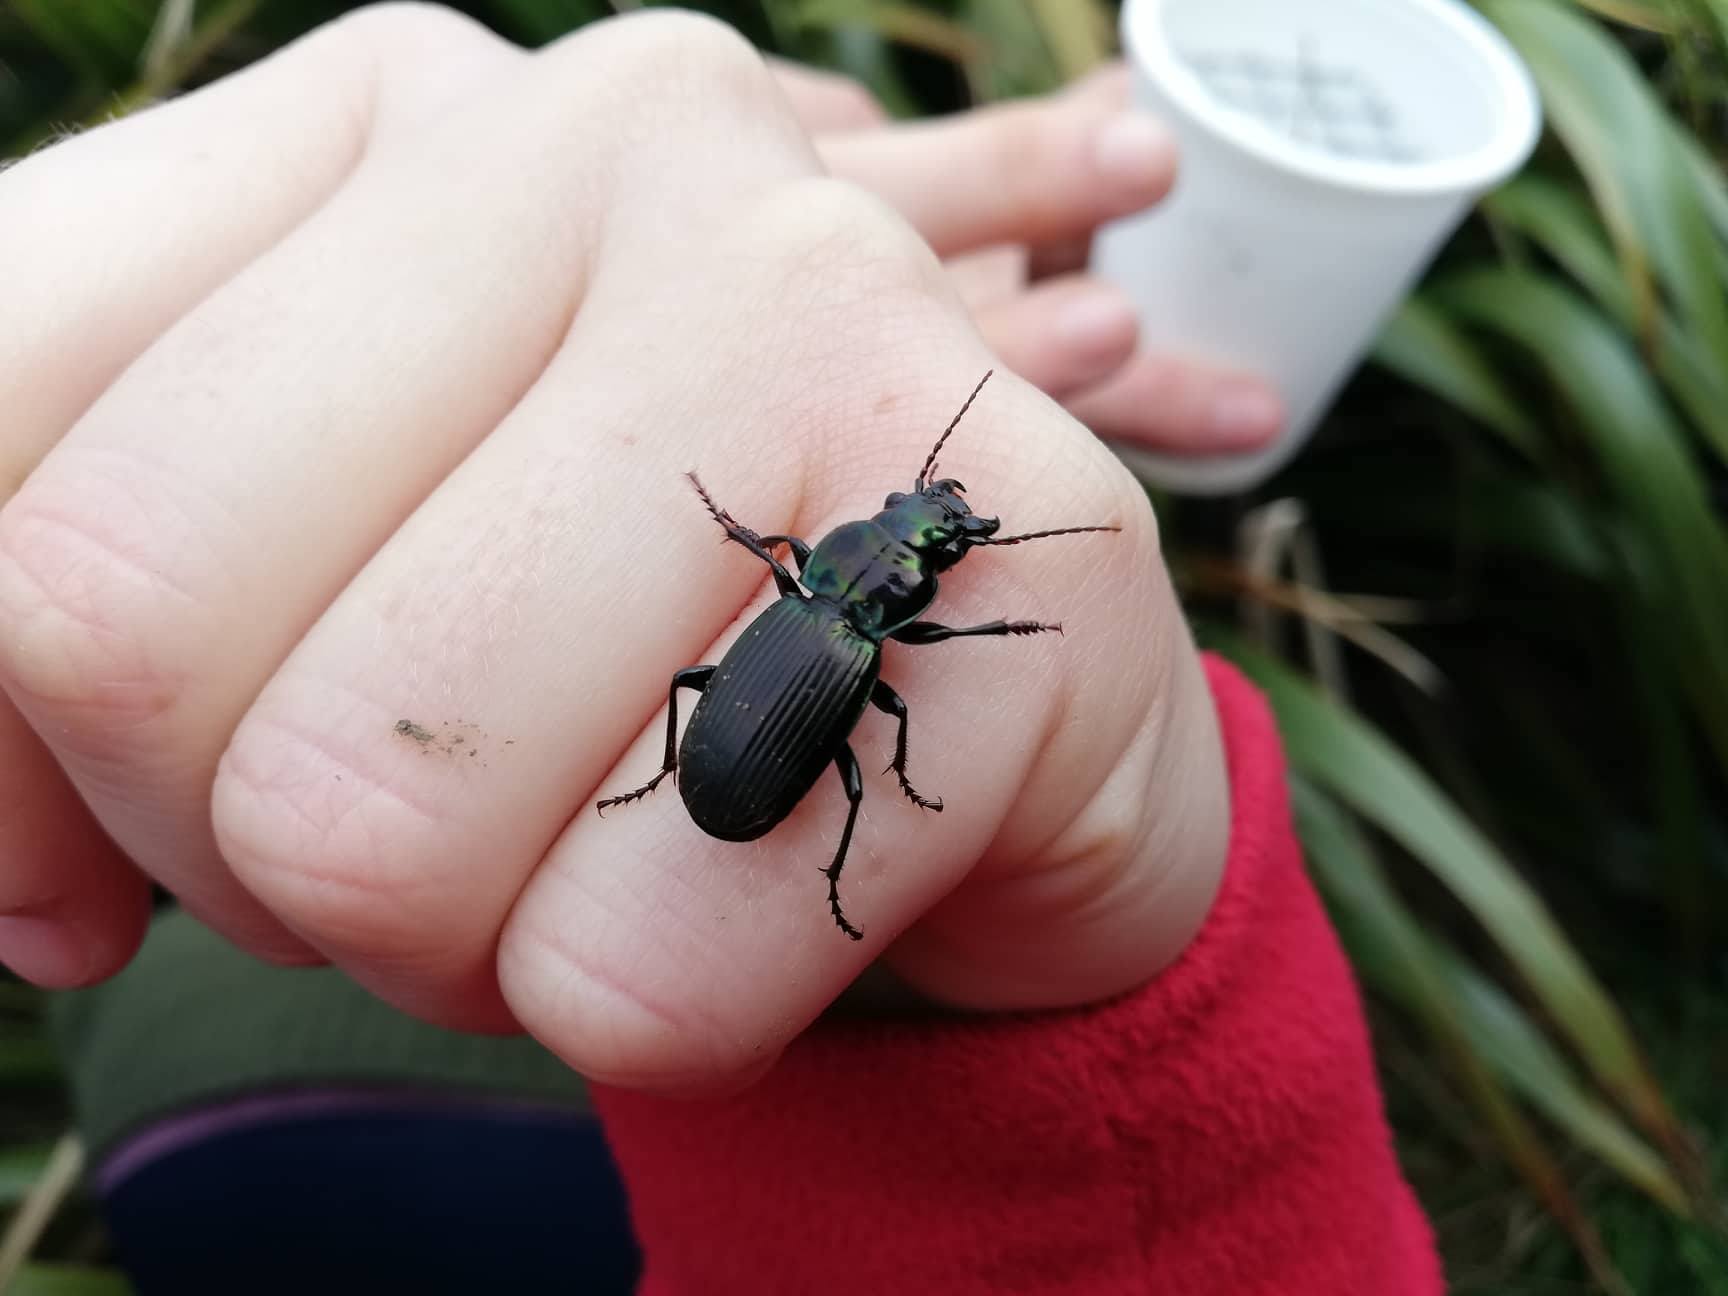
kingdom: Animalia
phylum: Arthropoda
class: Insecta
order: Coleoptera
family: Carabidae
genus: Megadromus
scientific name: Megadromus capito
